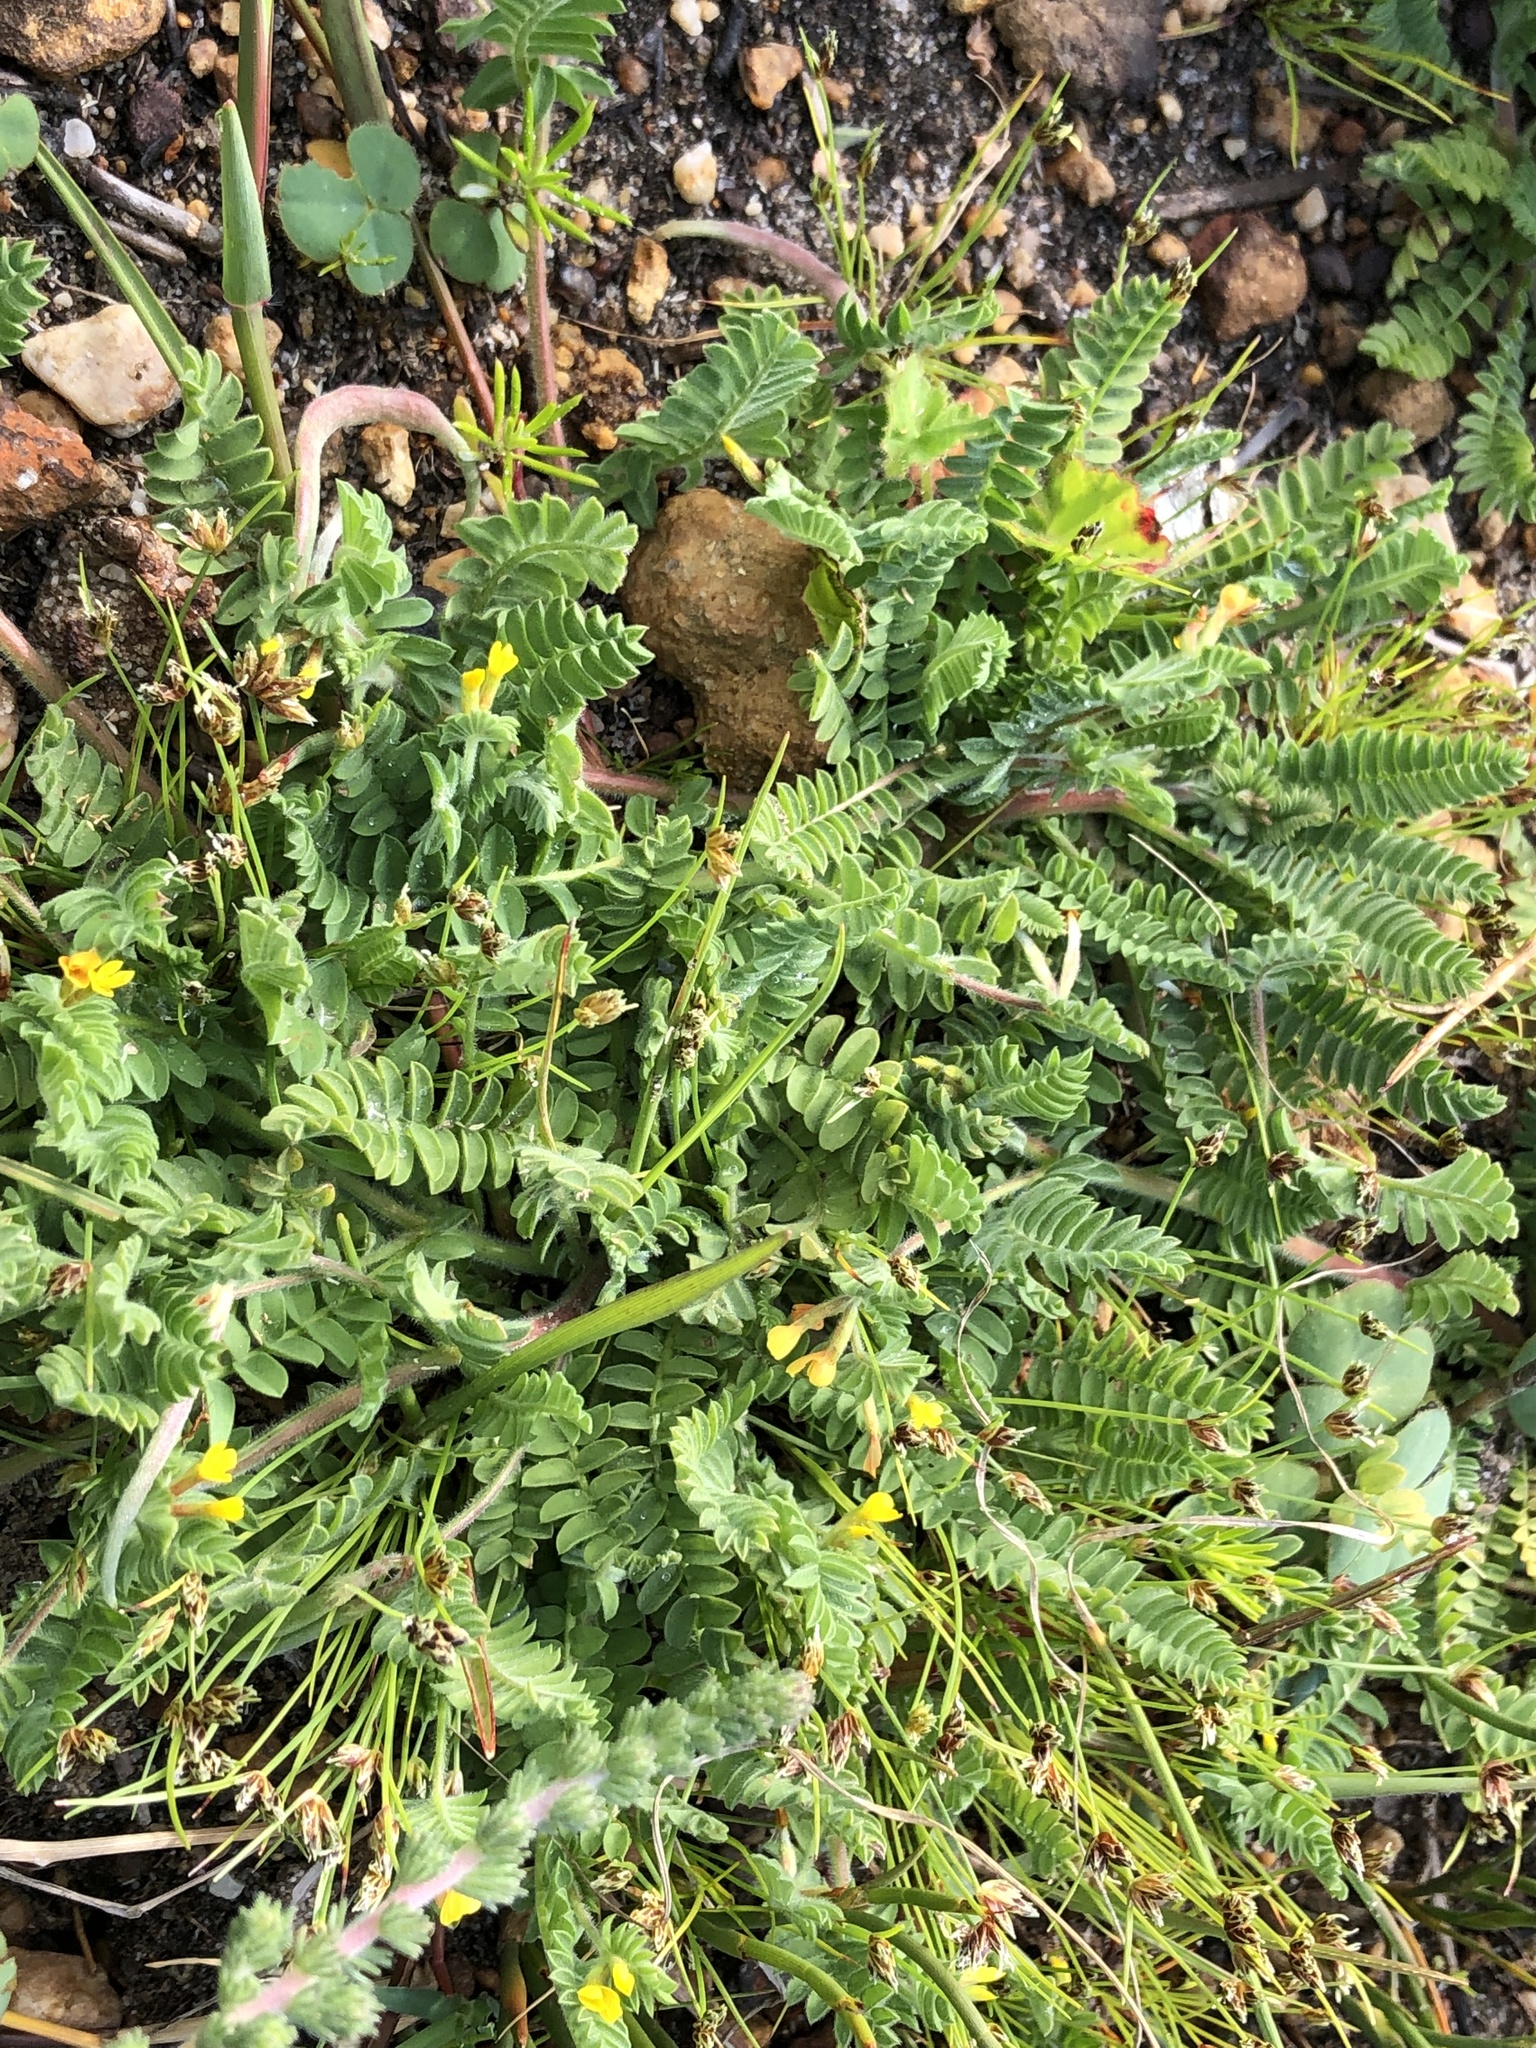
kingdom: Plantae
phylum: Tracheophyta
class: Magnoliopsida
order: Fabales
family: Fabaceae
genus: Ornithopus
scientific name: Ornithopus compressus
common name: Yellow serradella
